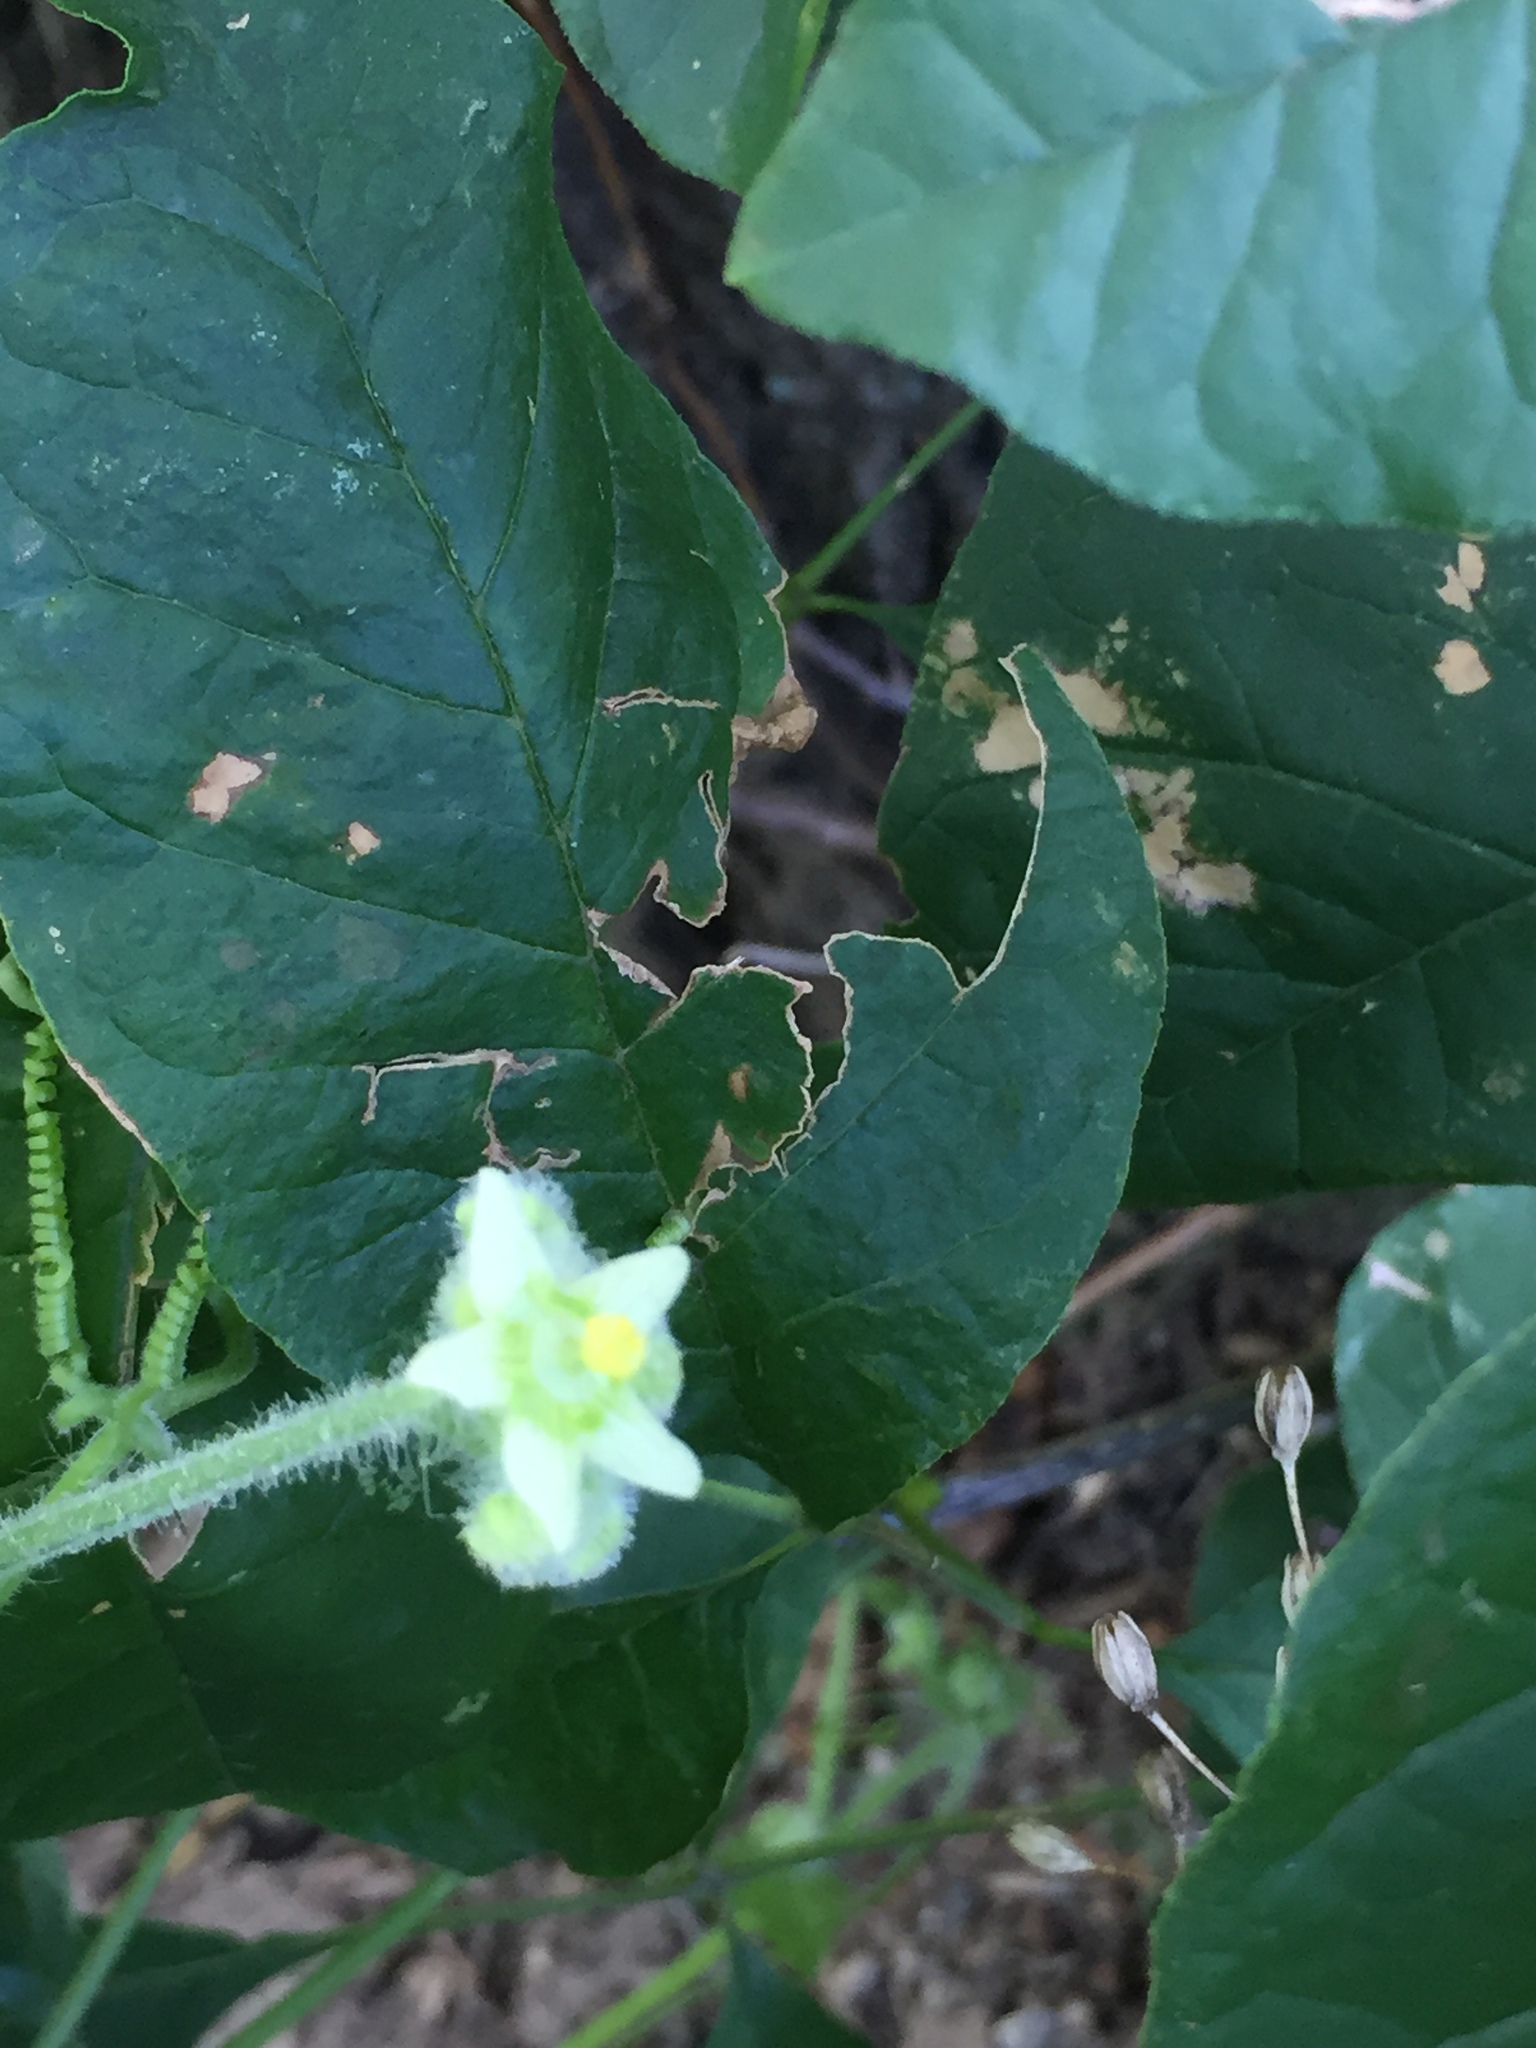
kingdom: Plantae
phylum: Tracheophyta
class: Magnoliopsida
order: Cucurbitales
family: Cucurbitaceae
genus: Sicyos
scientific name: Sicyos angulatus
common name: Angled burr cucumber
